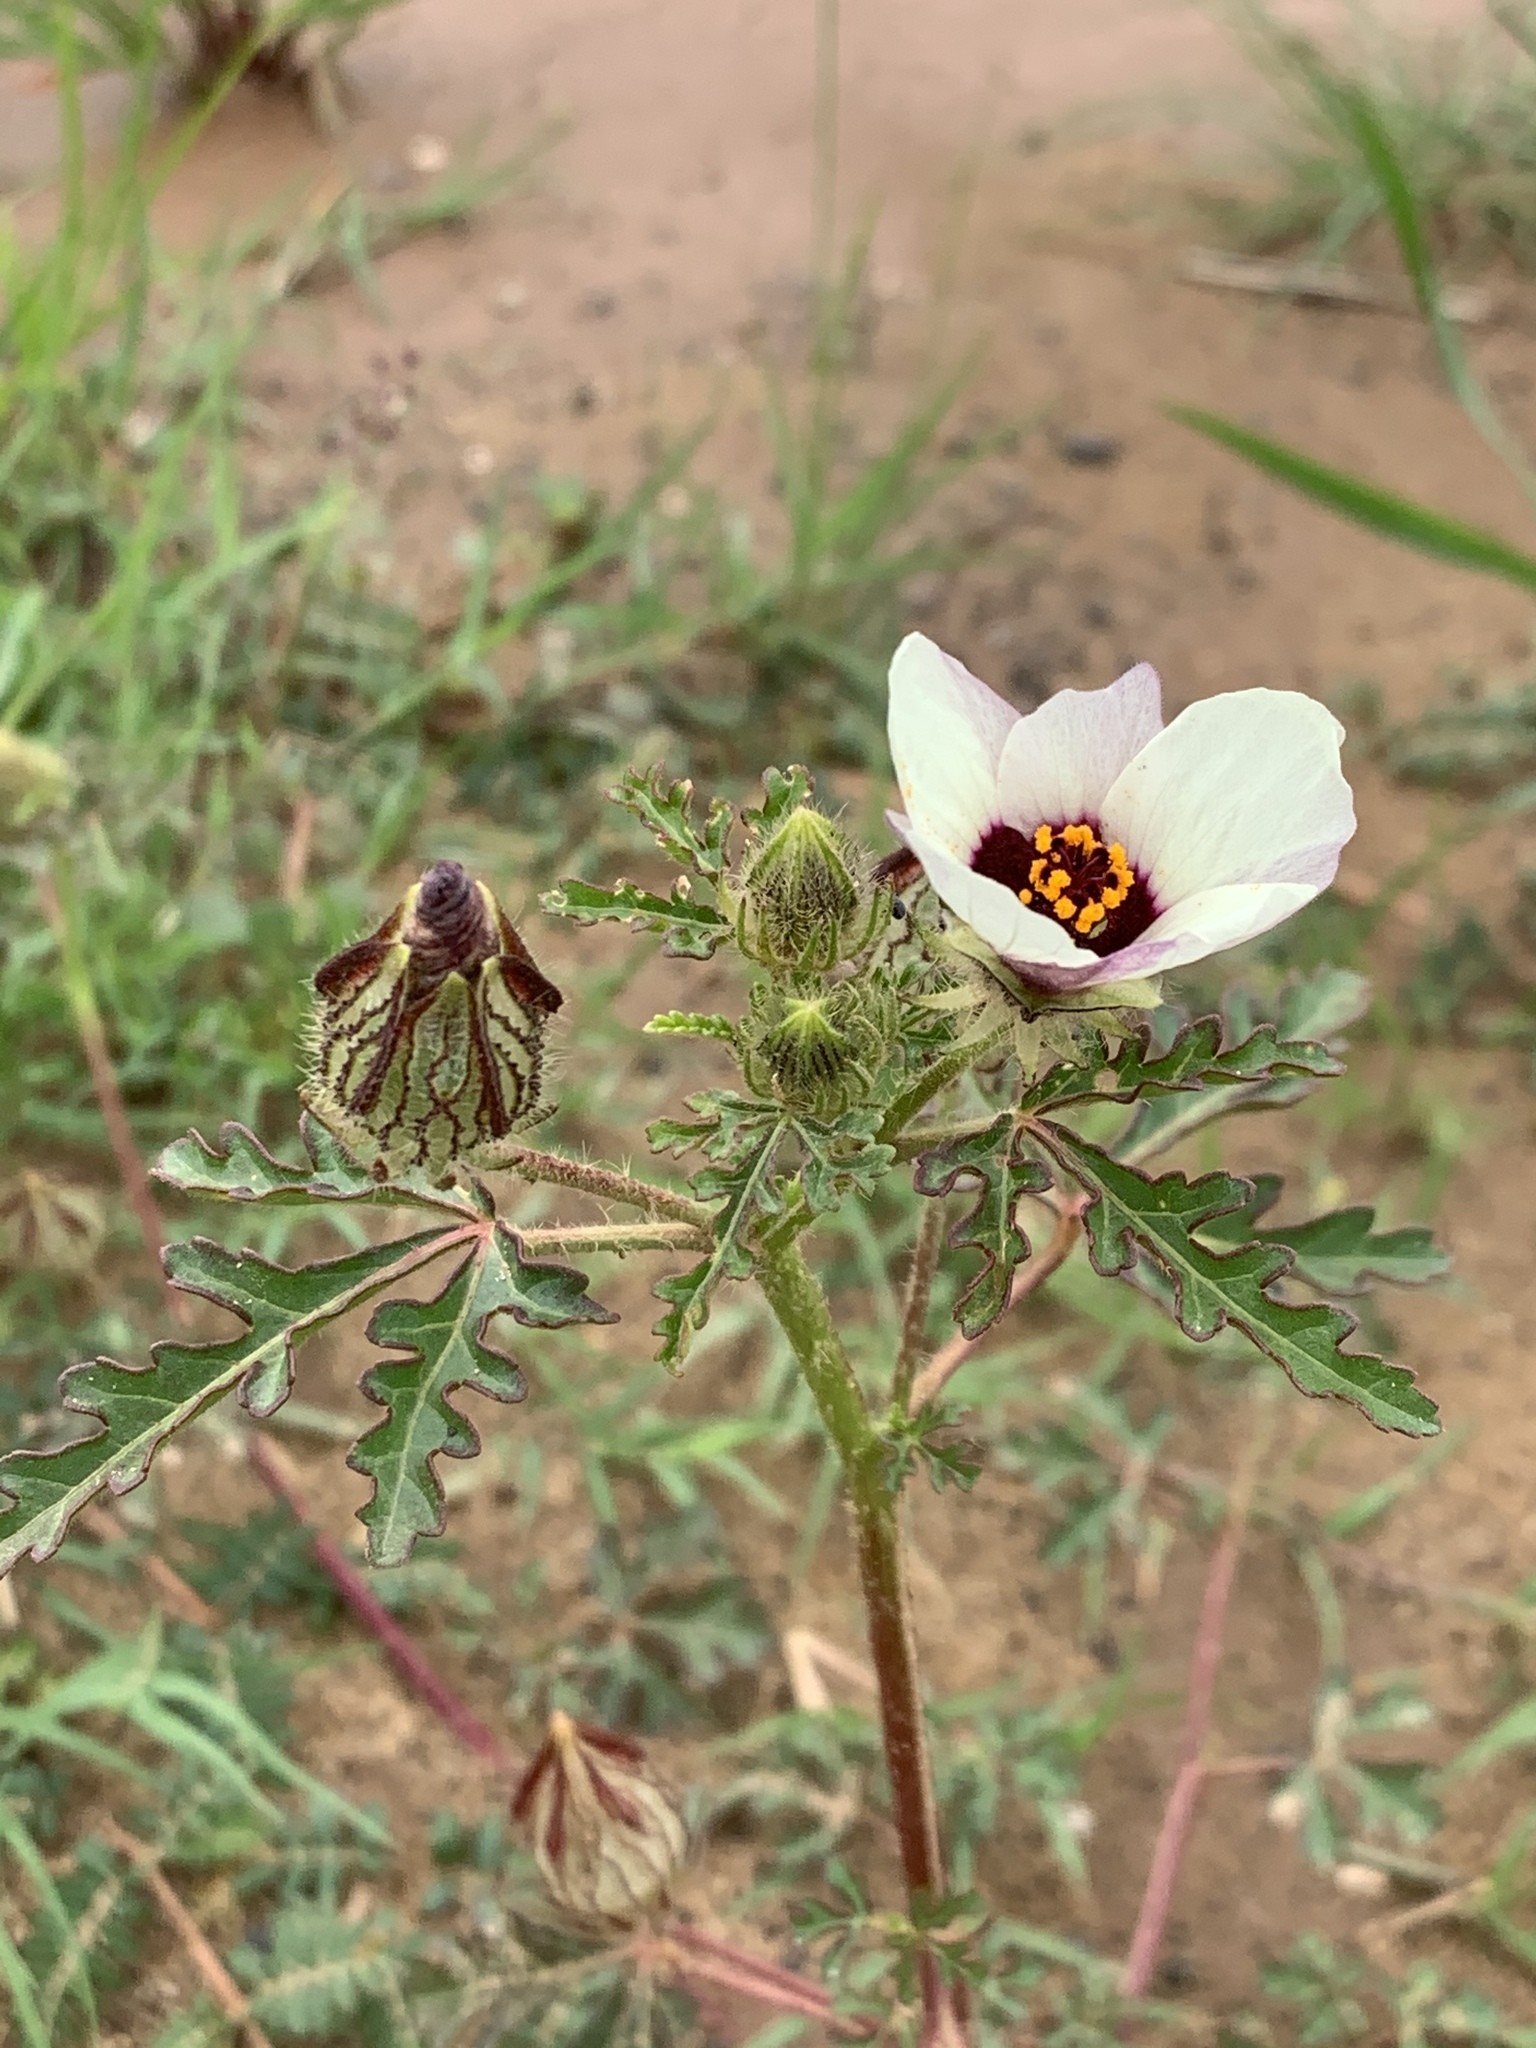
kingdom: Plantae
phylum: Tracheophyta
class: Magnoliopsida
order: Malvales
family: Malvaceae
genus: Hibiscus
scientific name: Hibiscus trionum
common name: Bladder ketmia
